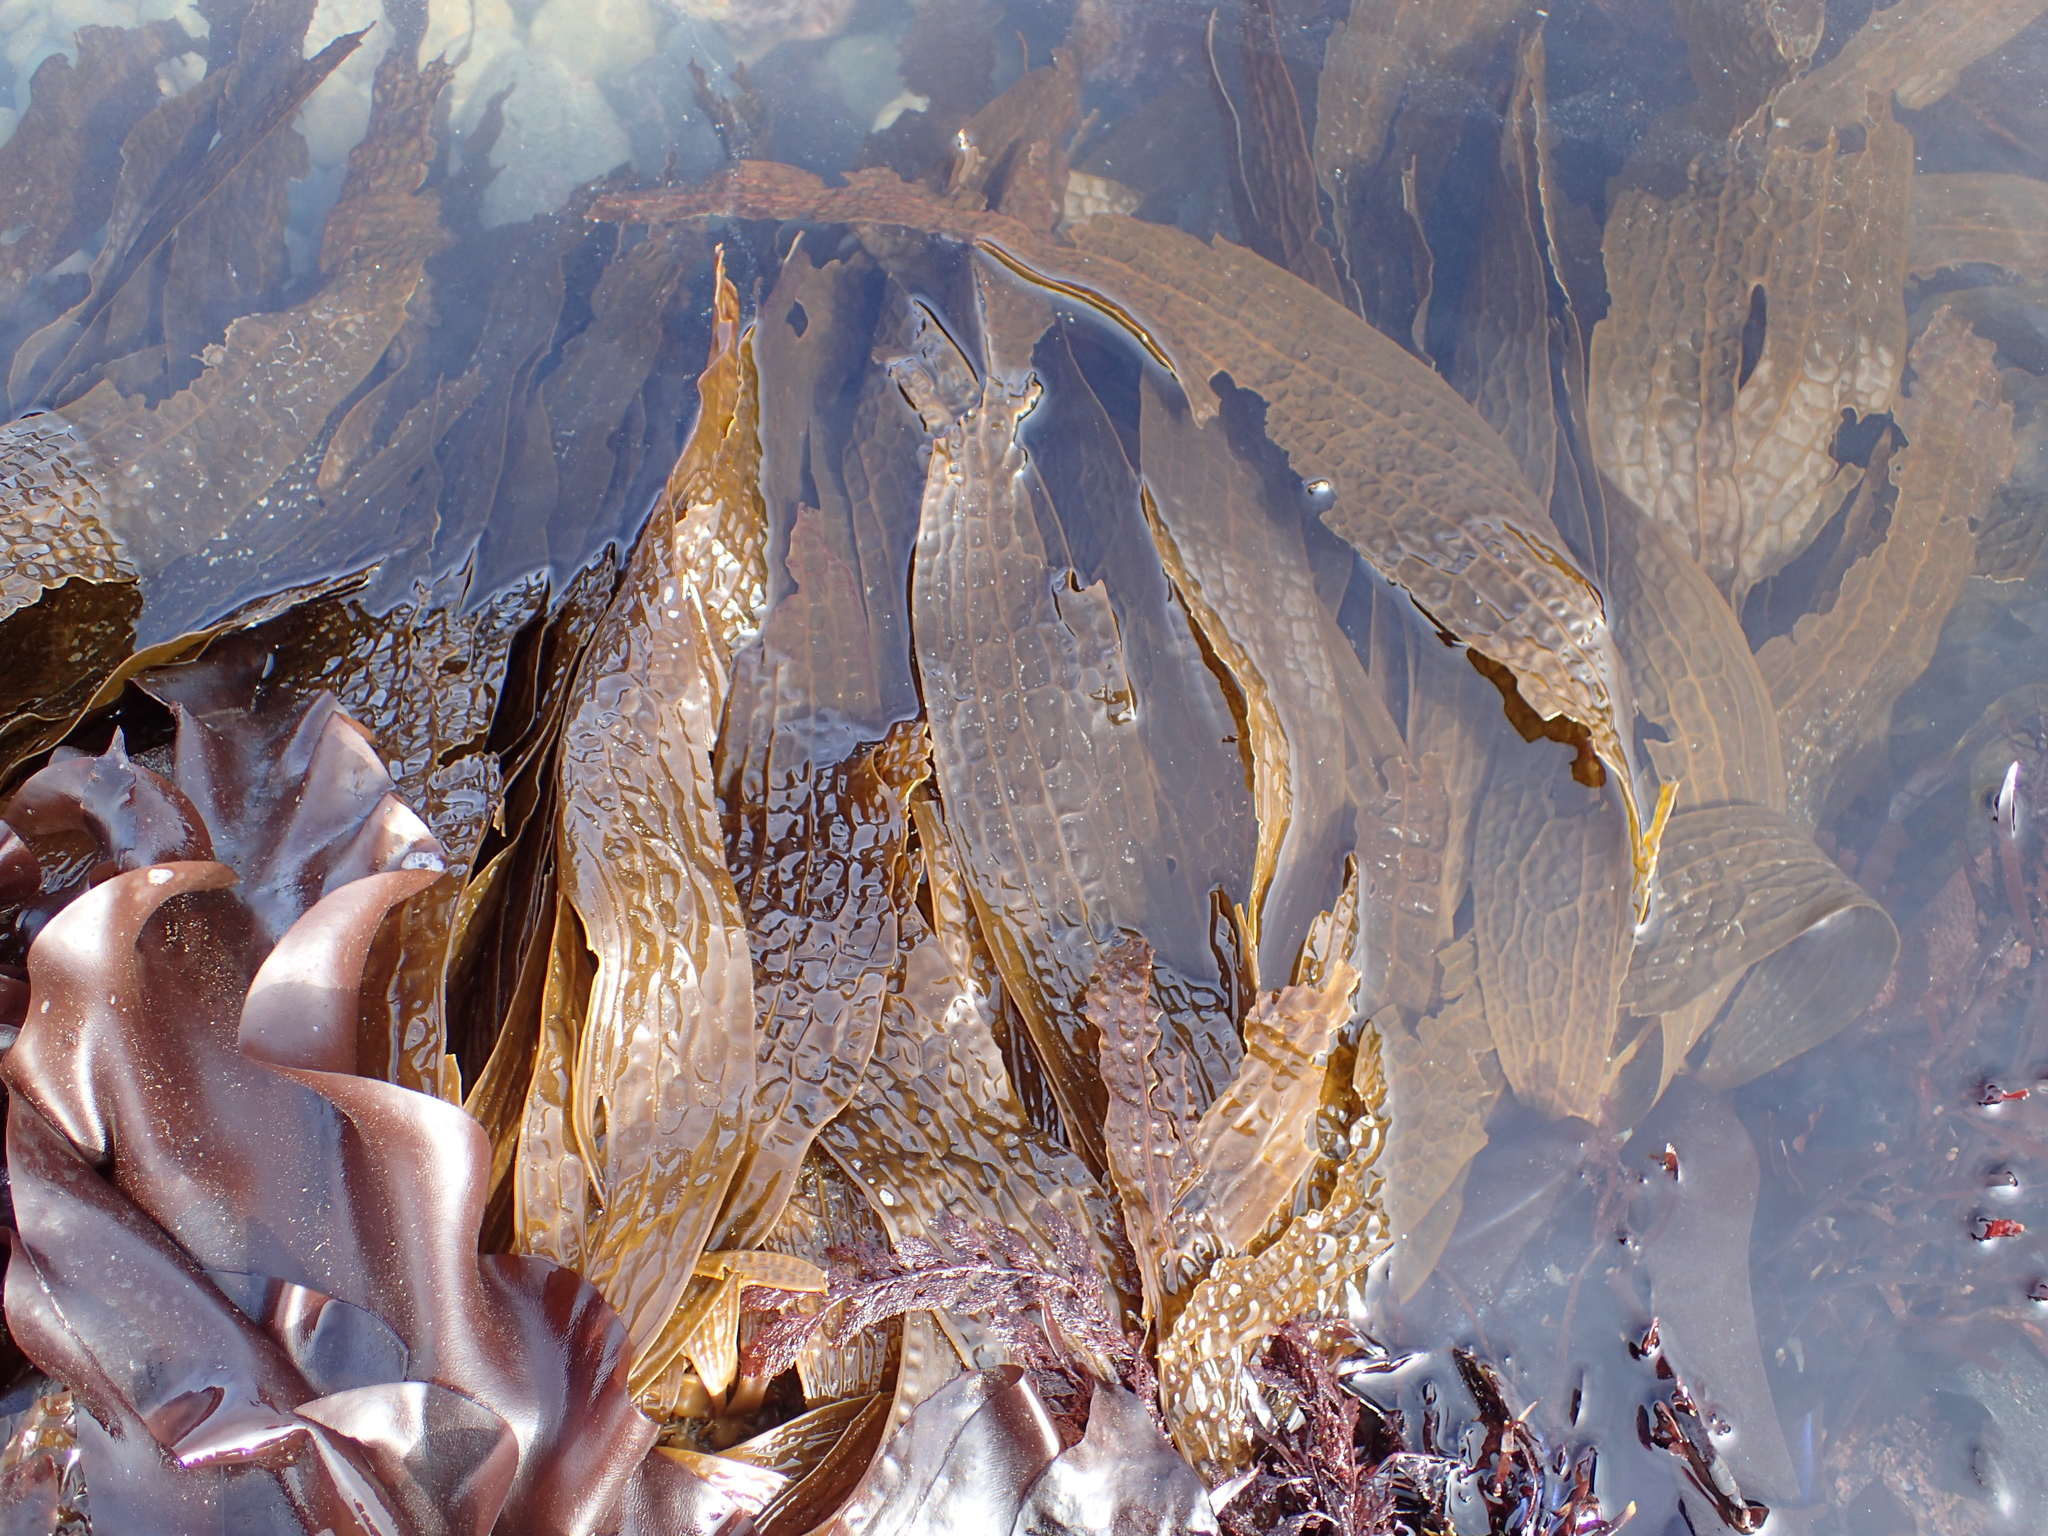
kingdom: Chromista
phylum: Ochrophyta
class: Phaeophyceae
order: Laminariales
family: Costariaceae
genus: Dictyoneurum
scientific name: Dictyoneurum californicum
